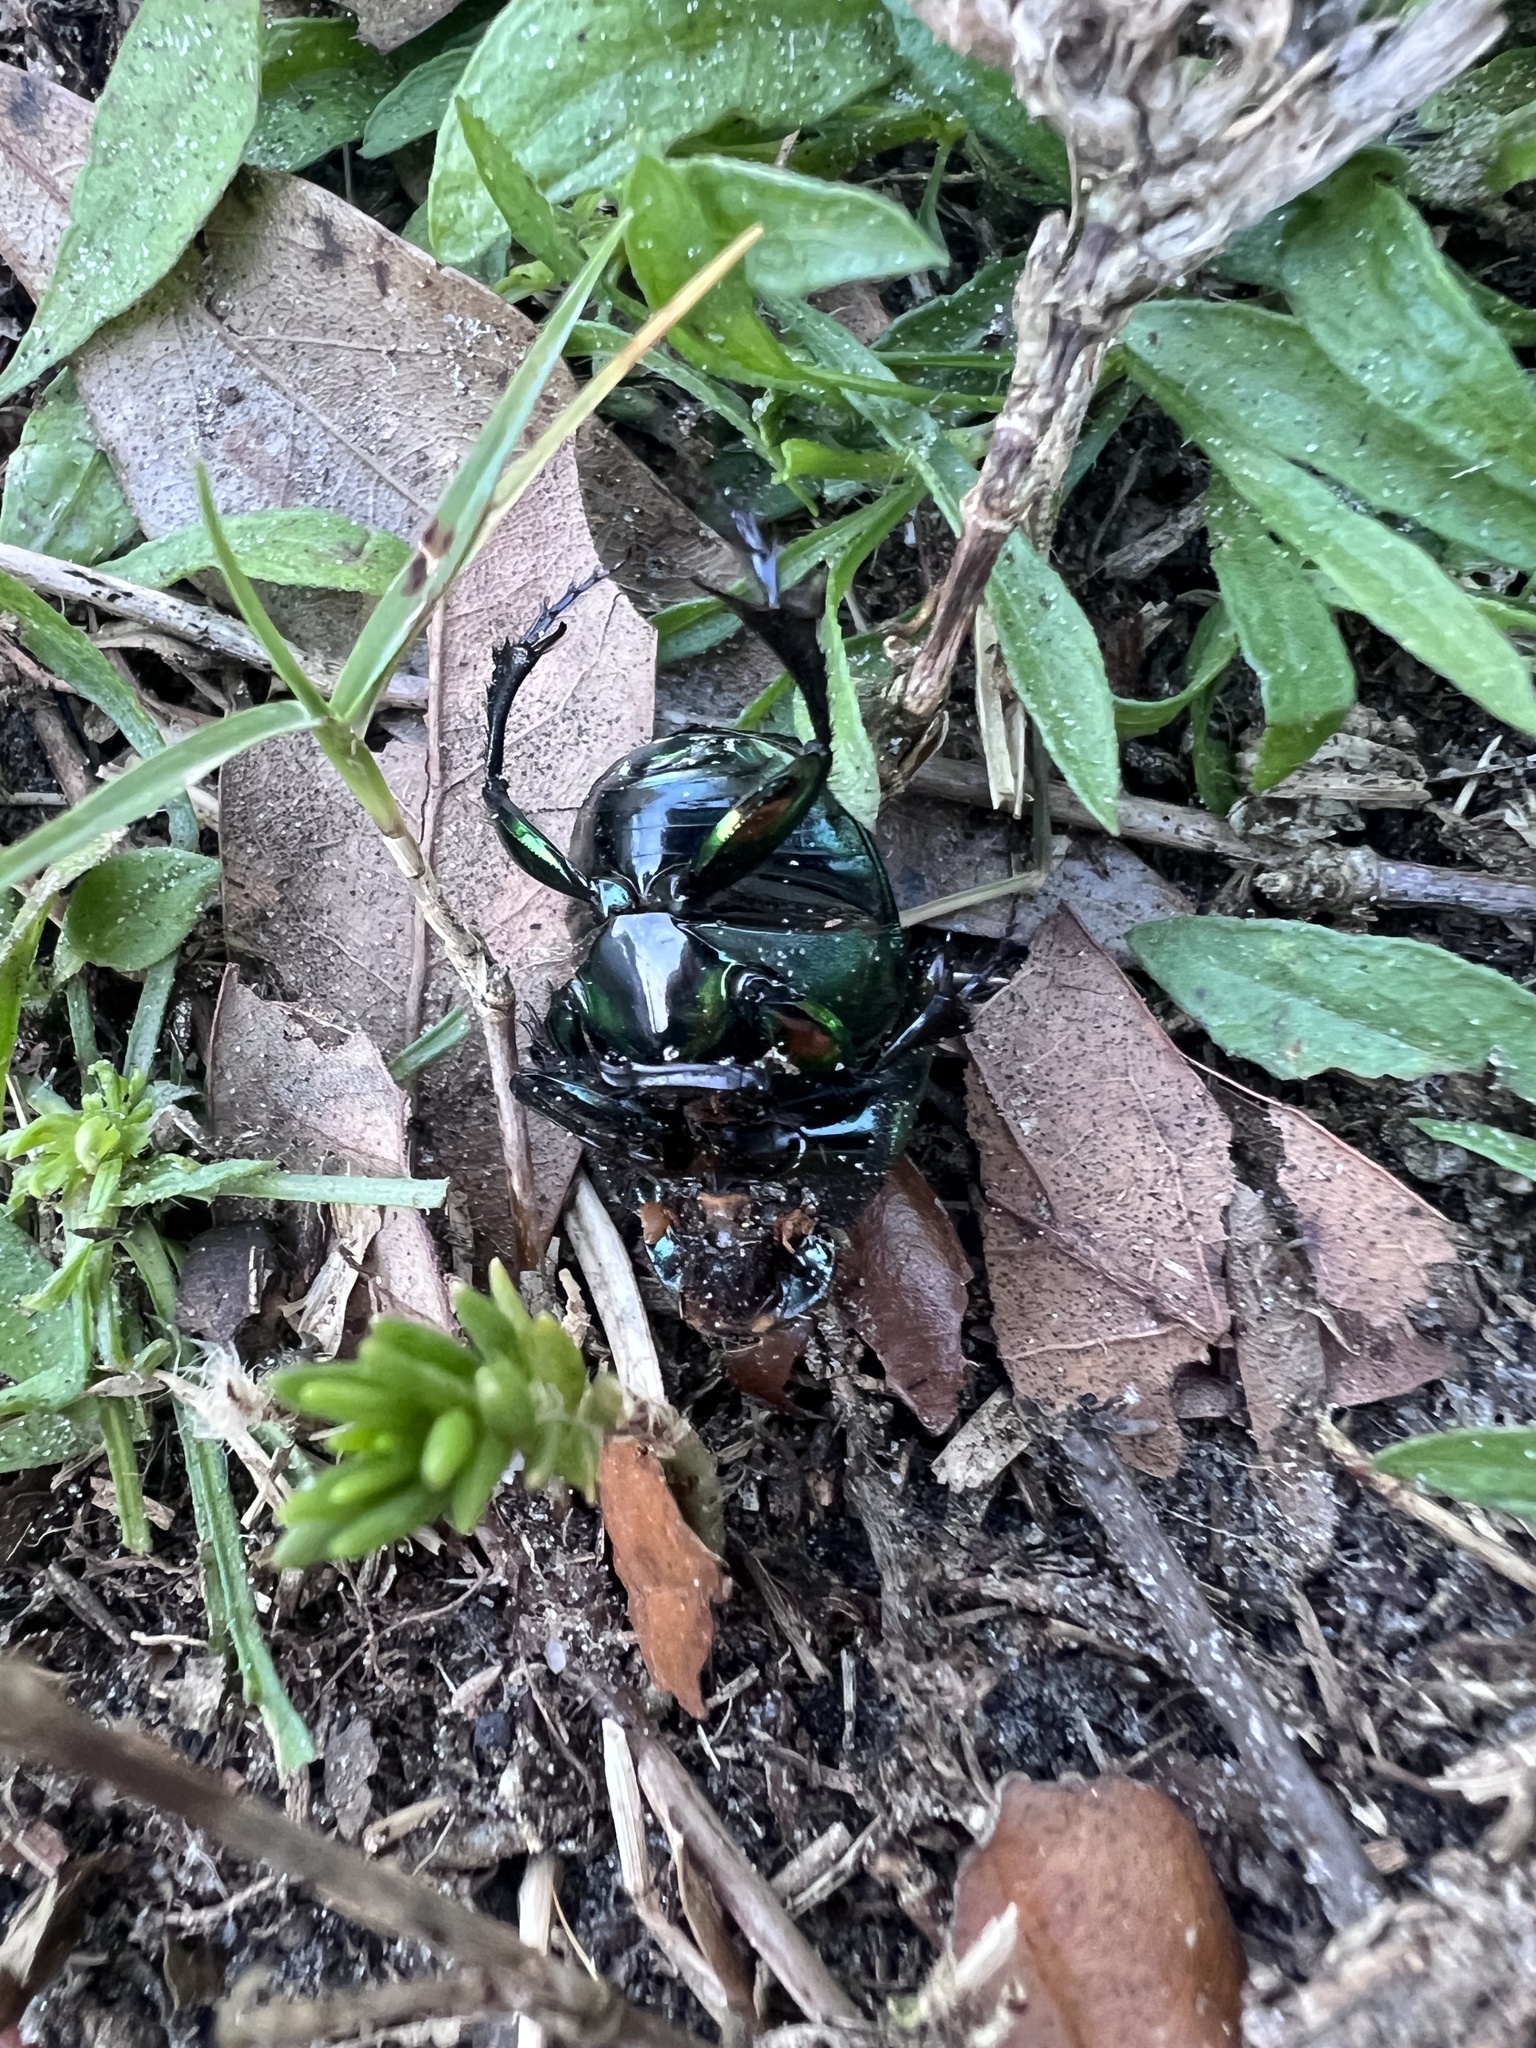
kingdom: Animalia
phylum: Arthropoda
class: Insecta
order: Coleoptera
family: Scarabaeidae
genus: Phanaeus
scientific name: Phanaeus vindex
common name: Rainbow scarab
